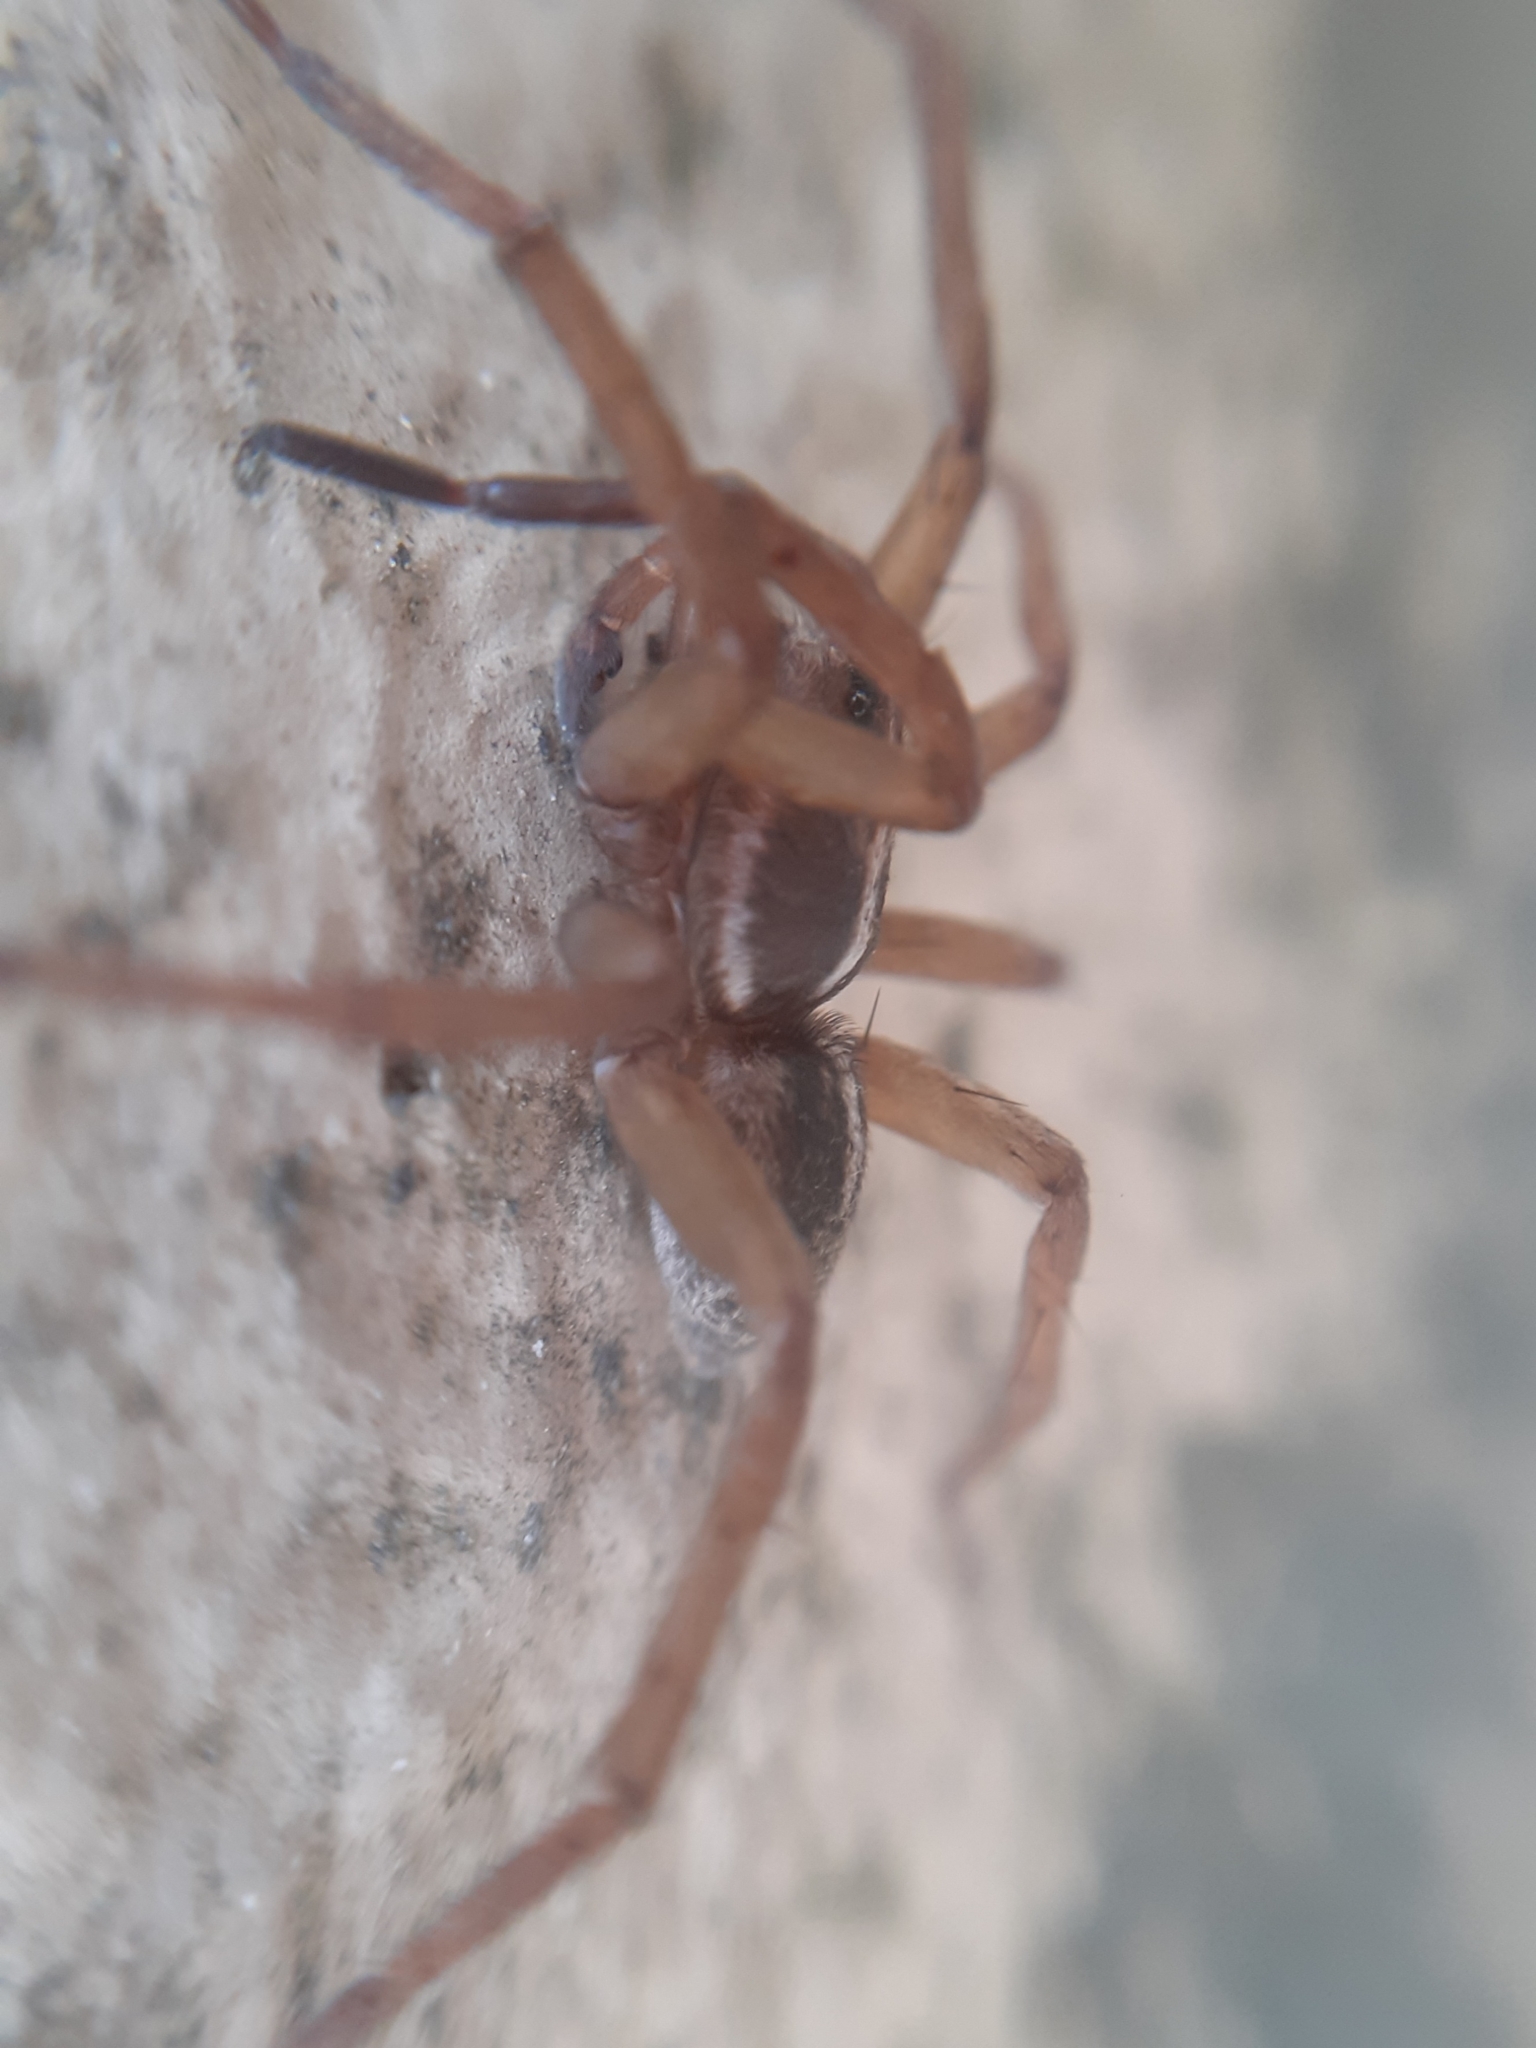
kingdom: Animalia
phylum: Arthropoda
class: Arachnida
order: Araneae
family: Lycosidae
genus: Trochosa
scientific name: Trochosa robusta
